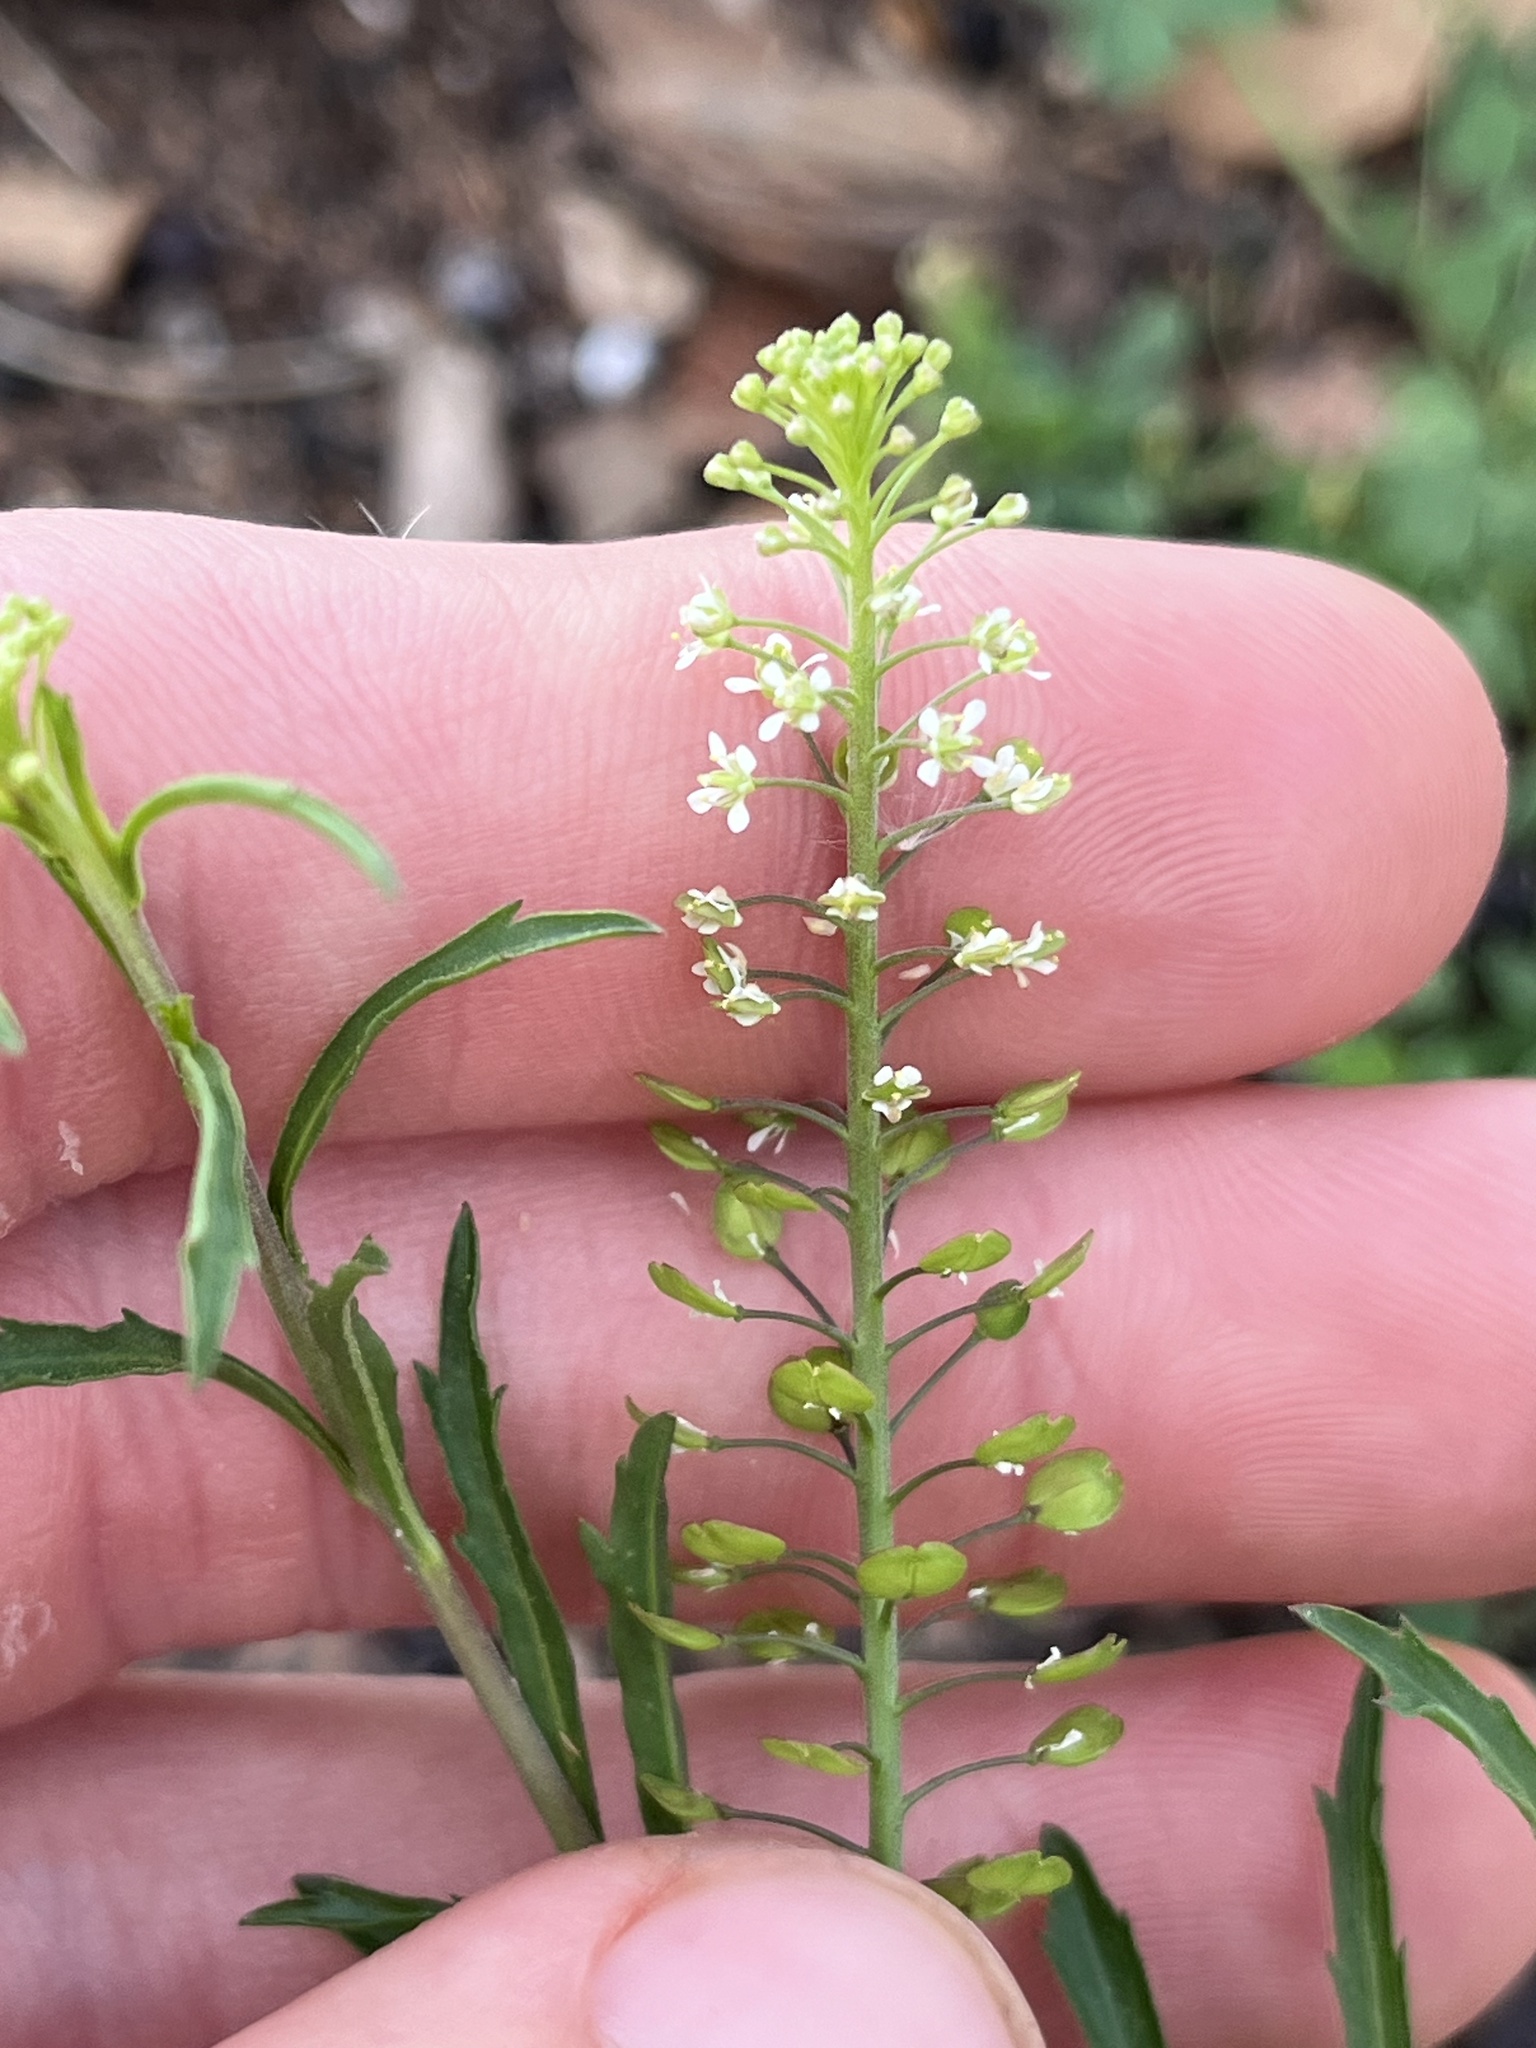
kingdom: Plantae
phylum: Tracheophyta
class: Magnoliopsida
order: Brassicales
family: Brassicaceae
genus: Lepidium
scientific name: Lepidium virginicum
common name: Least pepperwort
